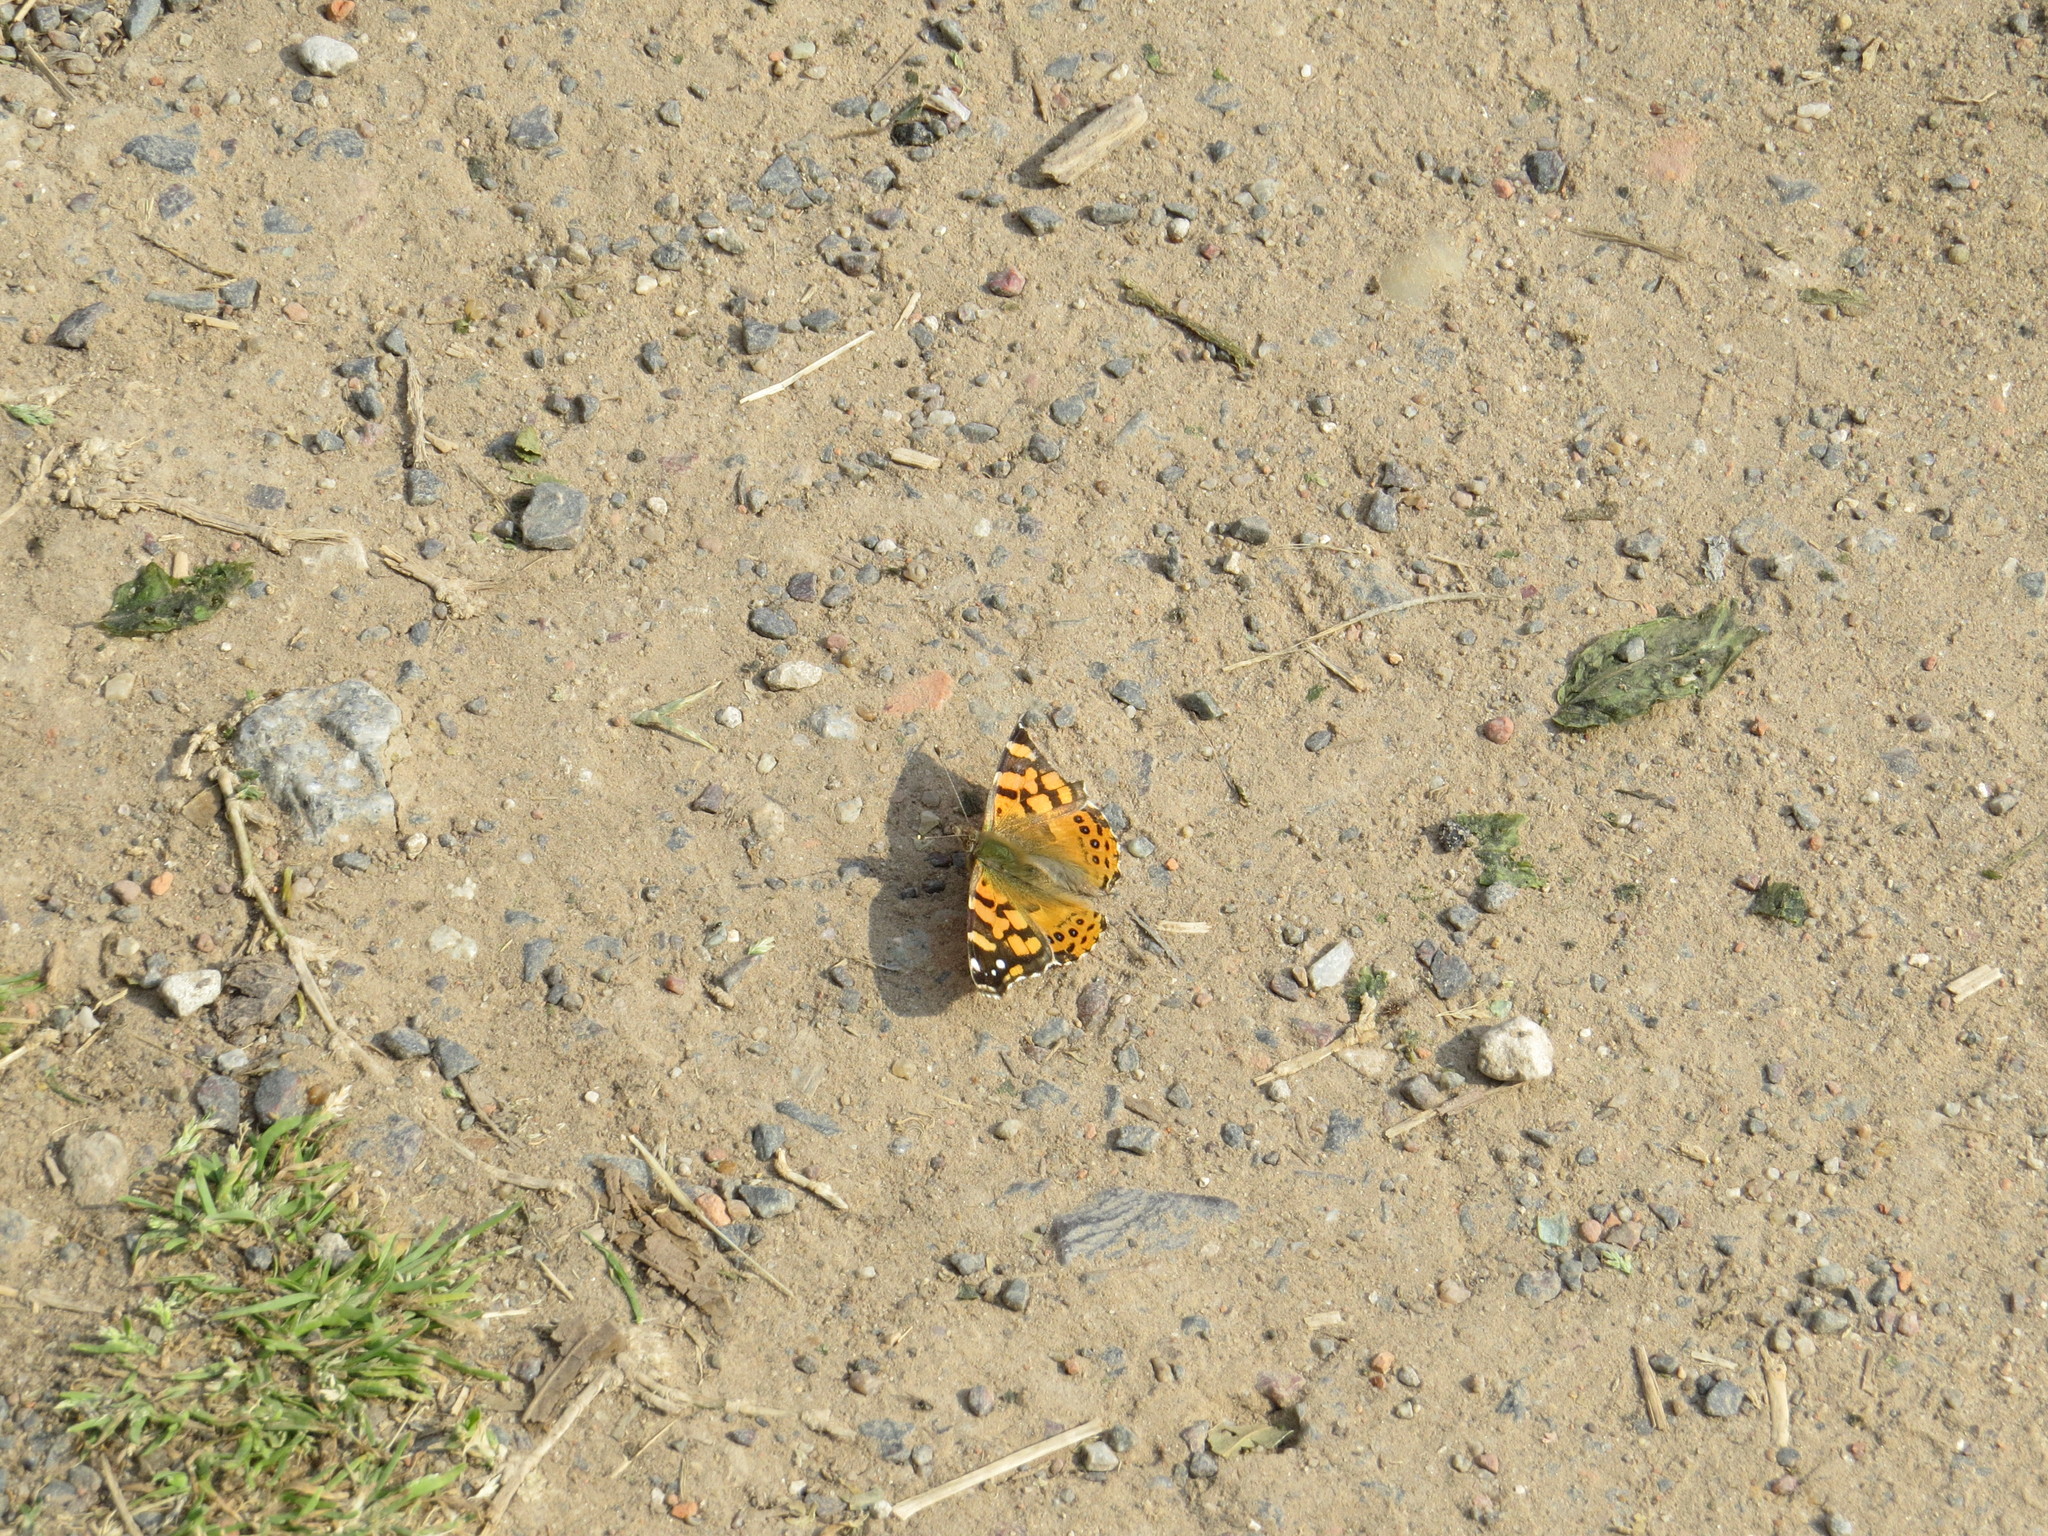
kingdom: Animalia
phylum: Arthropoda
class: Insecta
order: Lepidoptera
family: Nymphalidae
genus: Vanessa
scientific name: Vanessa carye
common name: Subtropical lady
